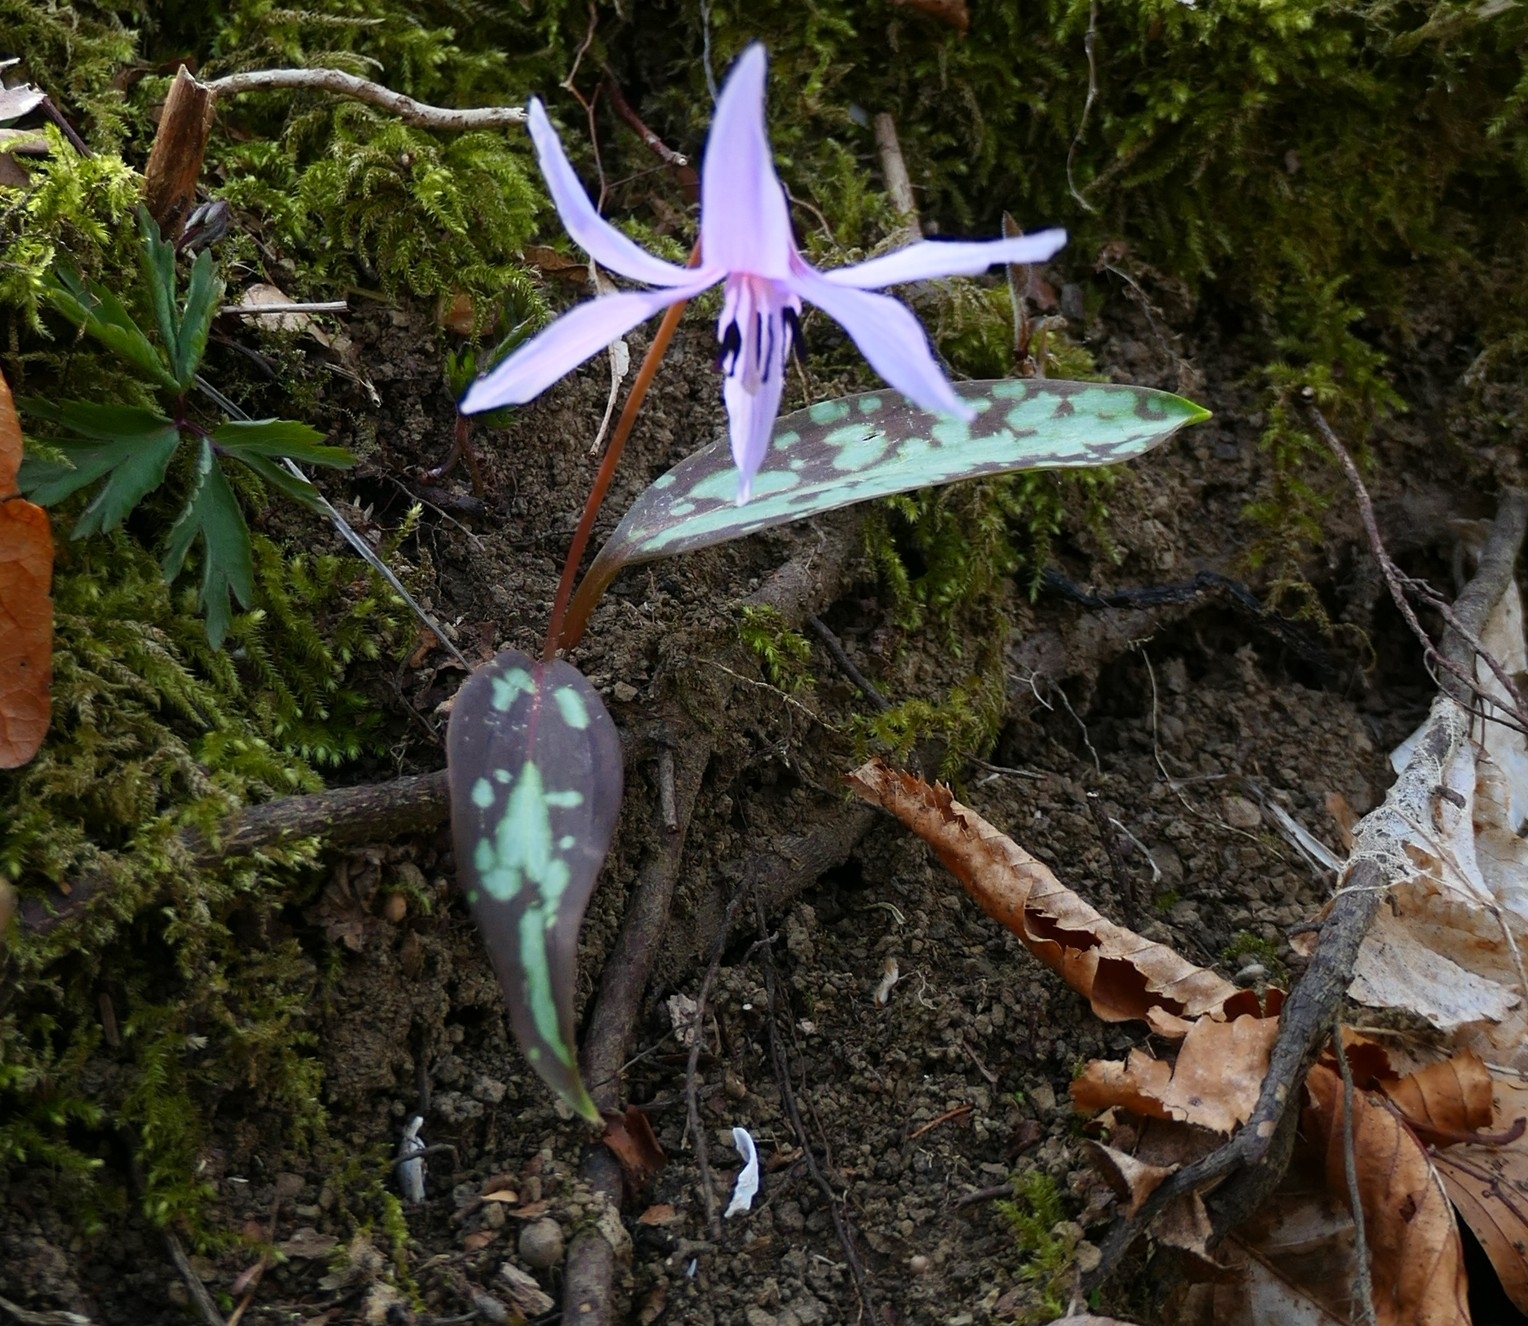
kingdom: Plantae
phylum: Tracheophyta
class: Liliopsida
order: Liliales
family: Liliaceae
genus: Erythronium
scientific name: Erythronium dens-canis
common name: Dog's-tooth-violet
